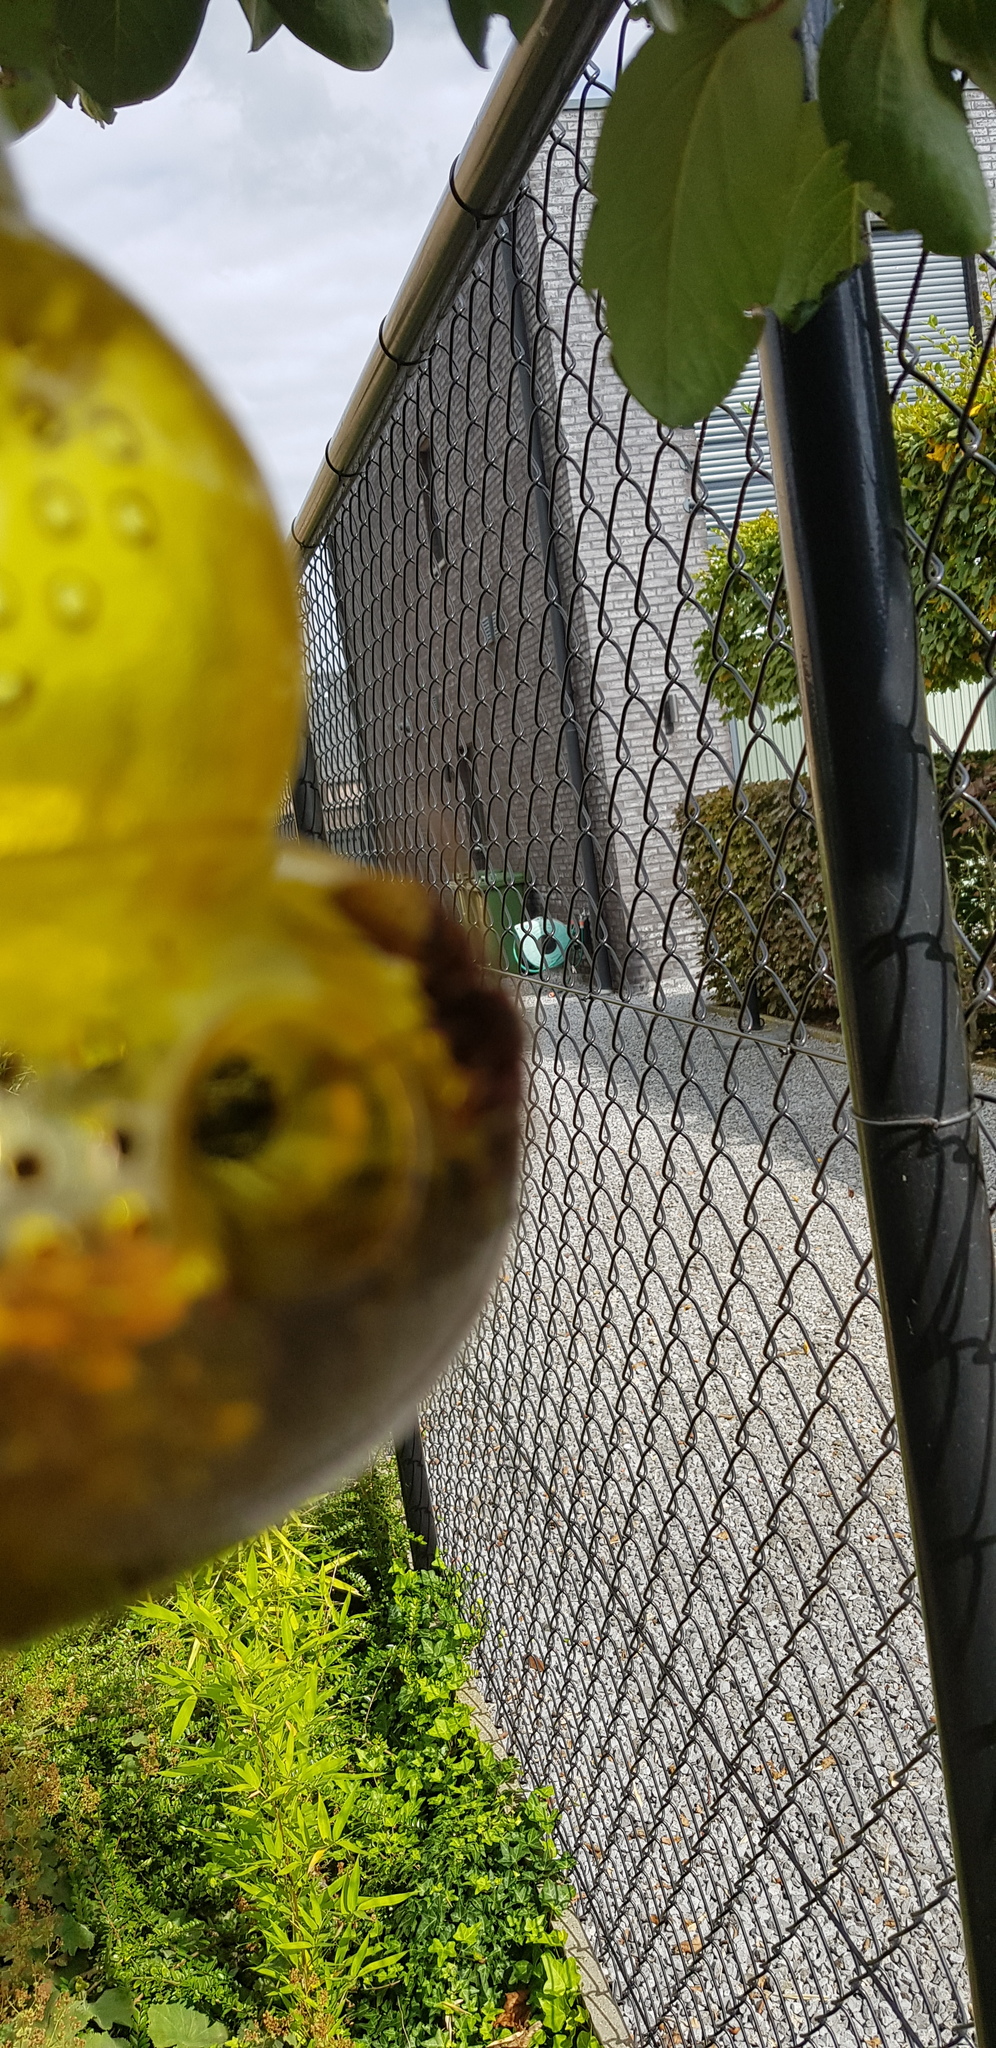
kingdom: Animalia
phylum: Arthropoda
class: Insecta
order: Hymenoptera
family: Vespidae
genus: Vespa
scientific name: Vespa crabro
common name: Hornet
